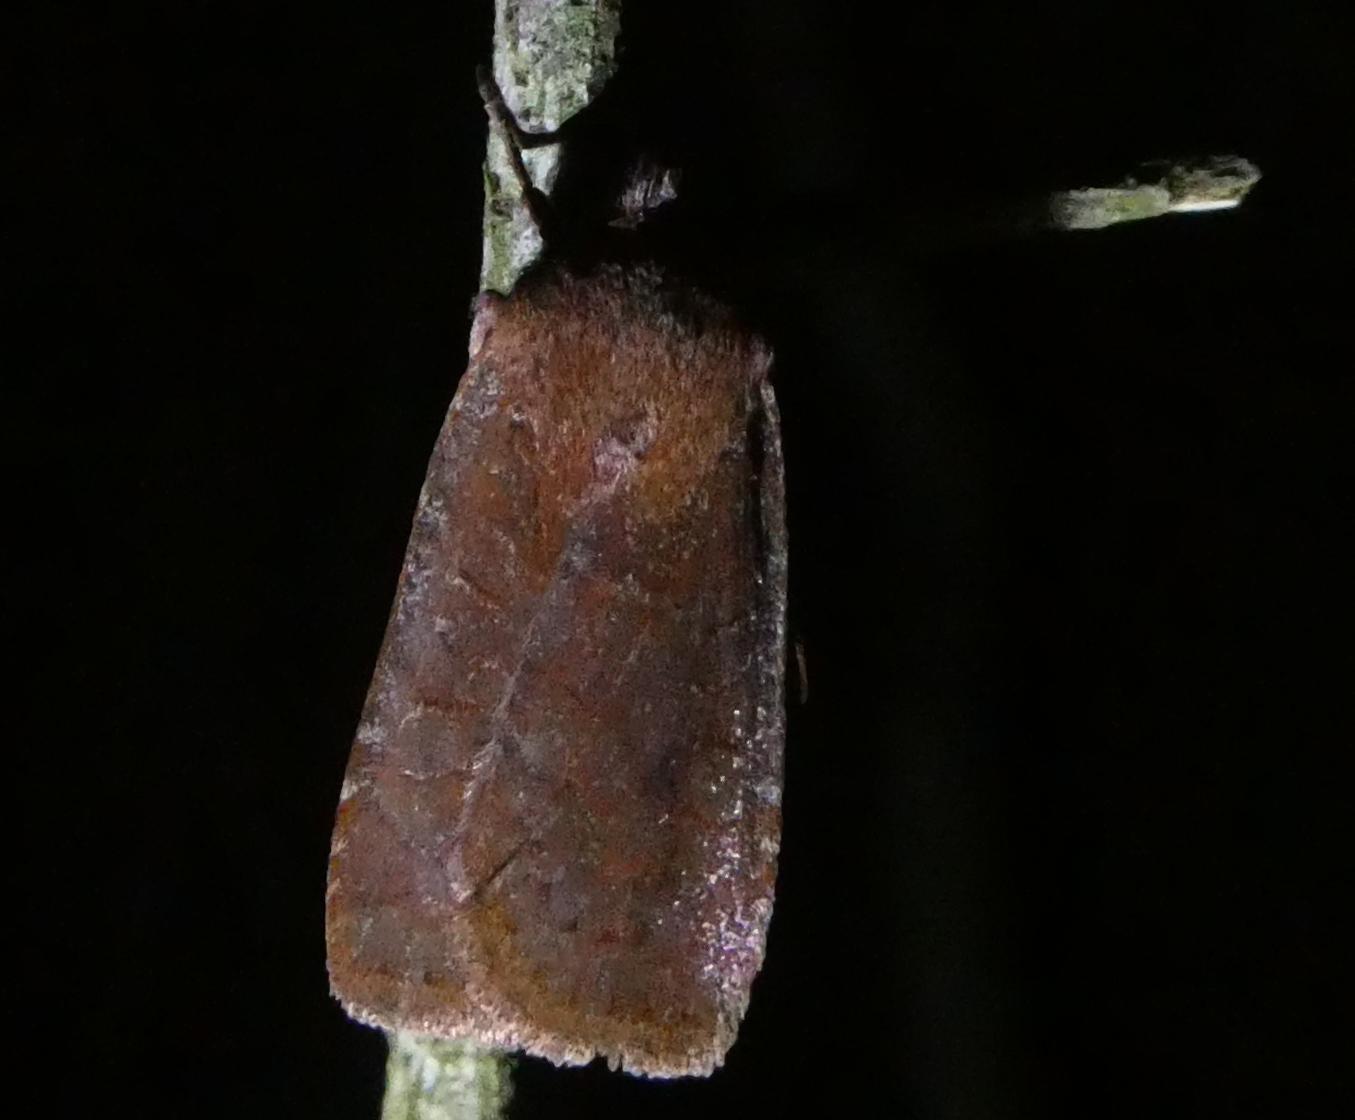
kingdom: Animalia
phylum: Arthropoda
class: Insecta
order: Lepidoptera
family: Noctuidae
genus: Conistra
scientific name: Conistra vaccinii
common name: Chestnut
